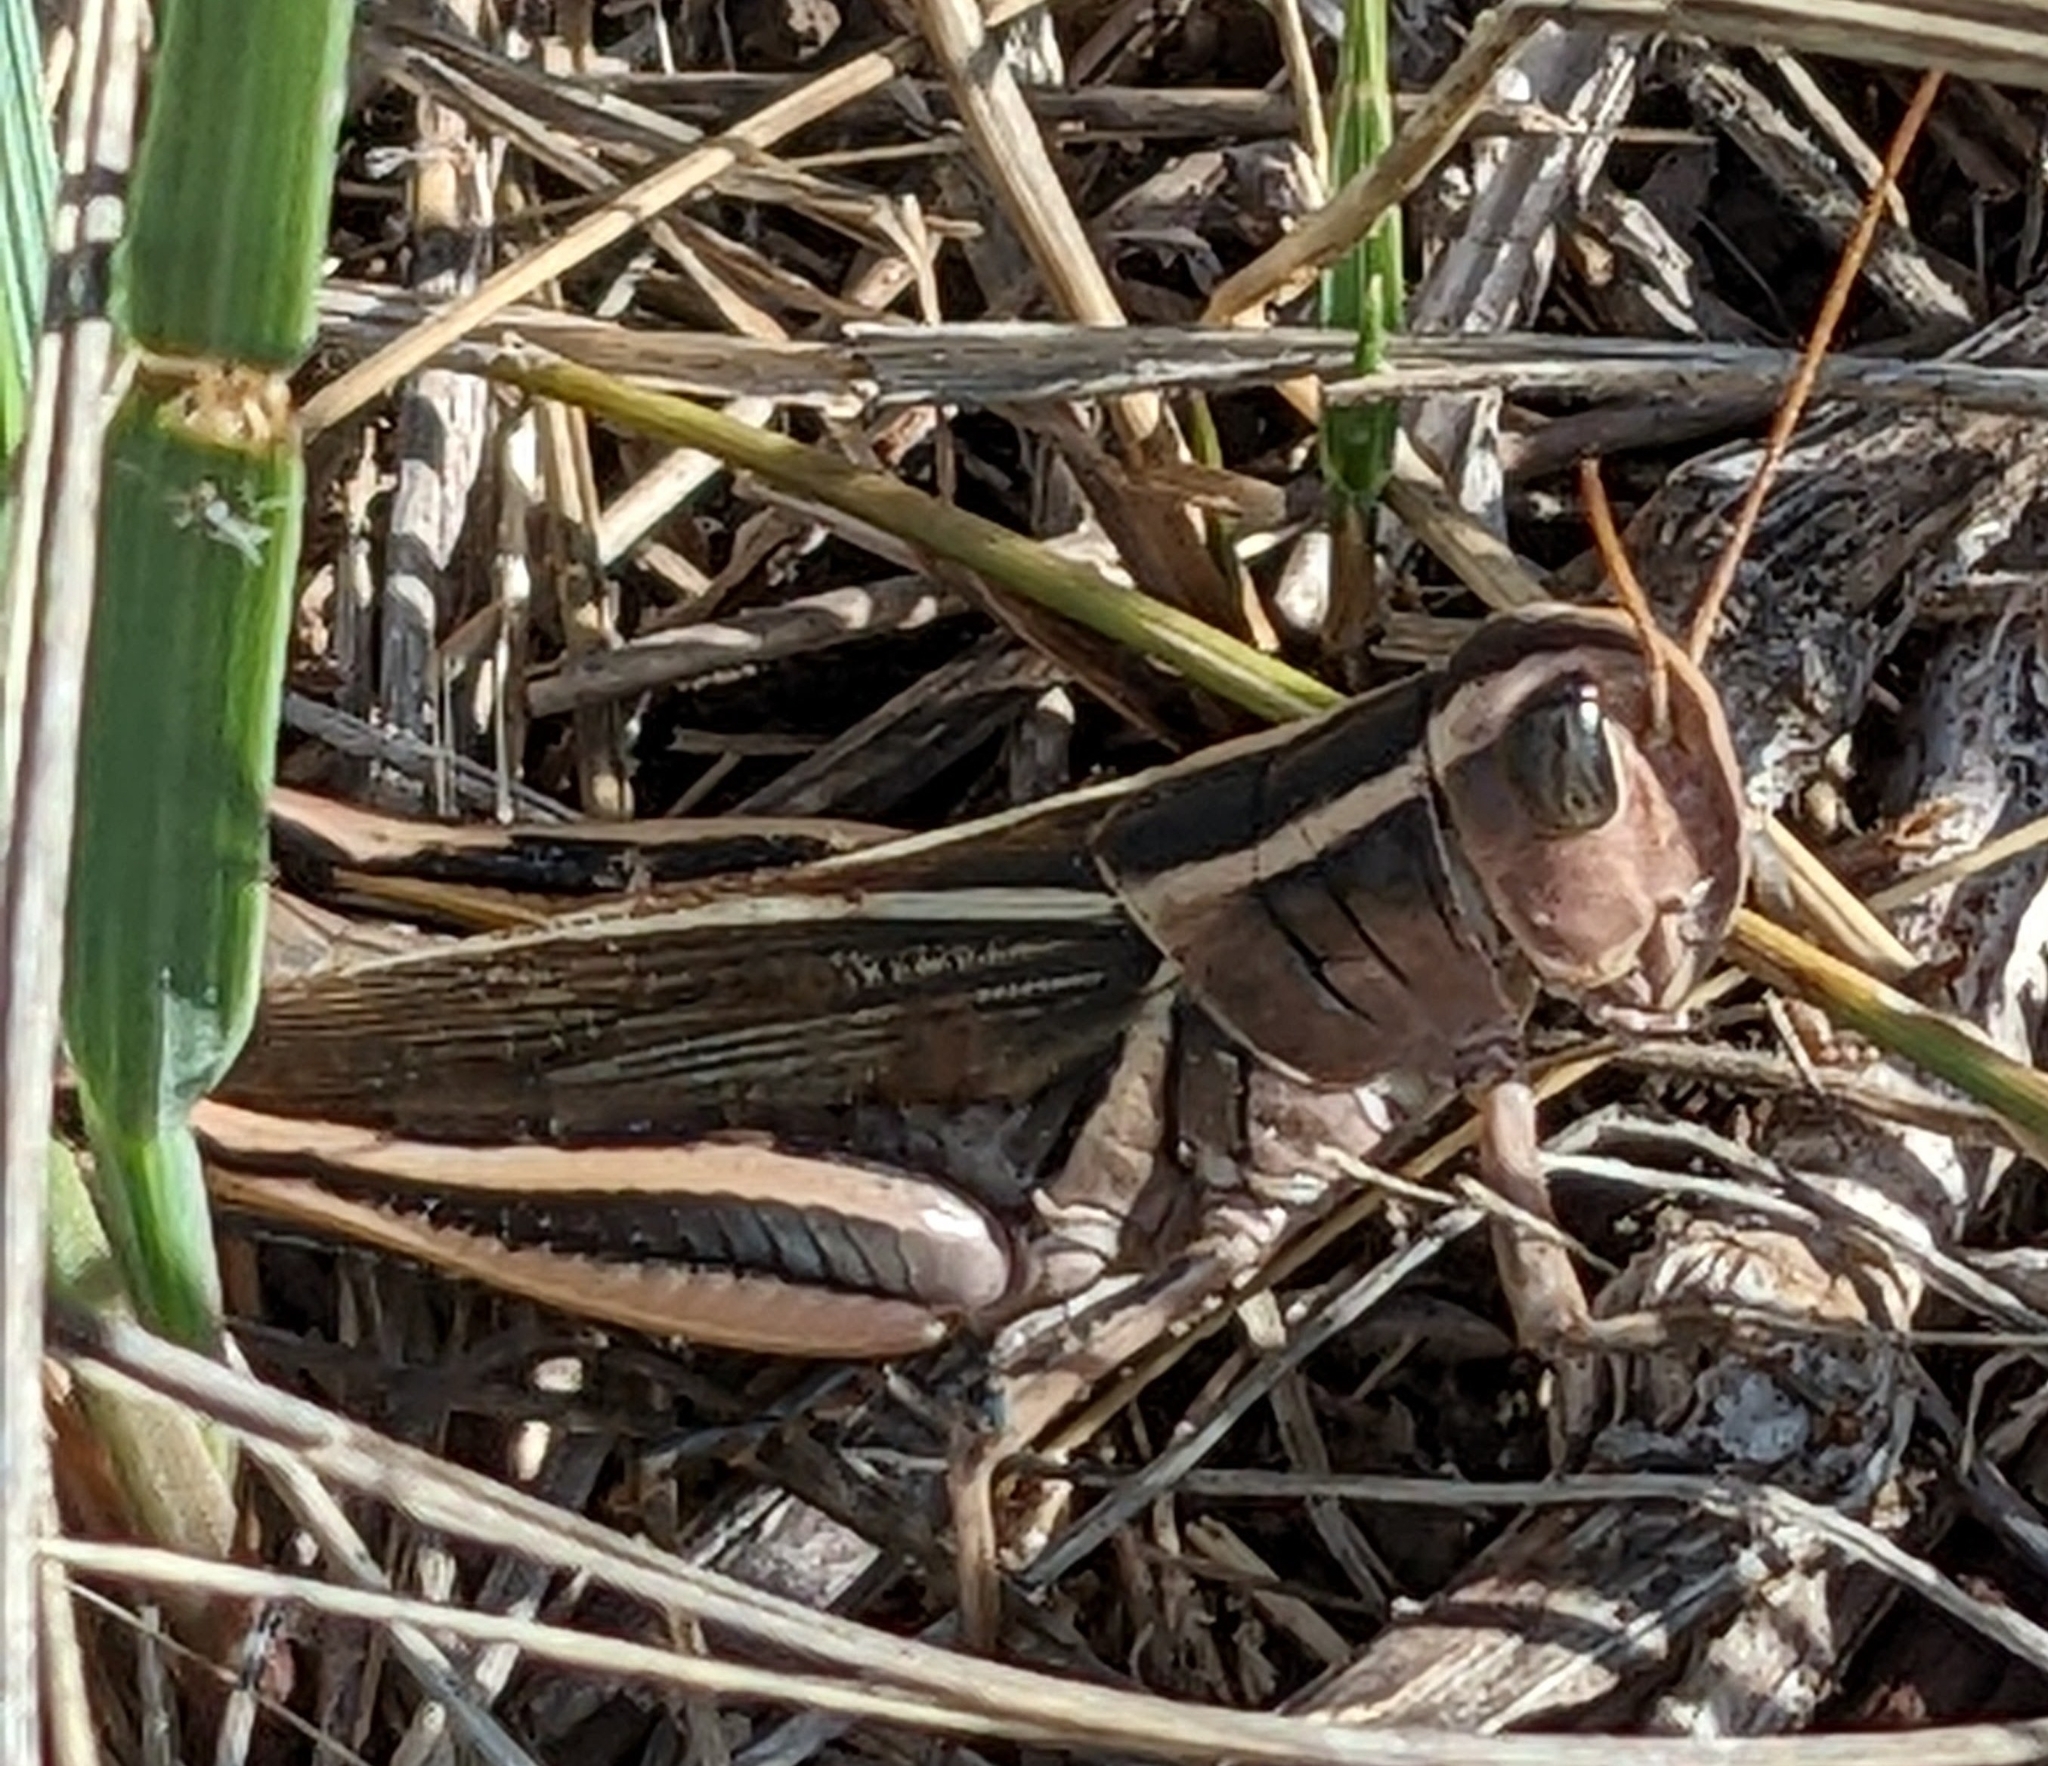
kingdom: Animalia
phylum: Arthropoda
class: Insecta
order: Orthoptera
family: Acrididae
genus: Melanoplus
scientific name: Melanoplus bivittatus
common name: Two-striped grasshopper
